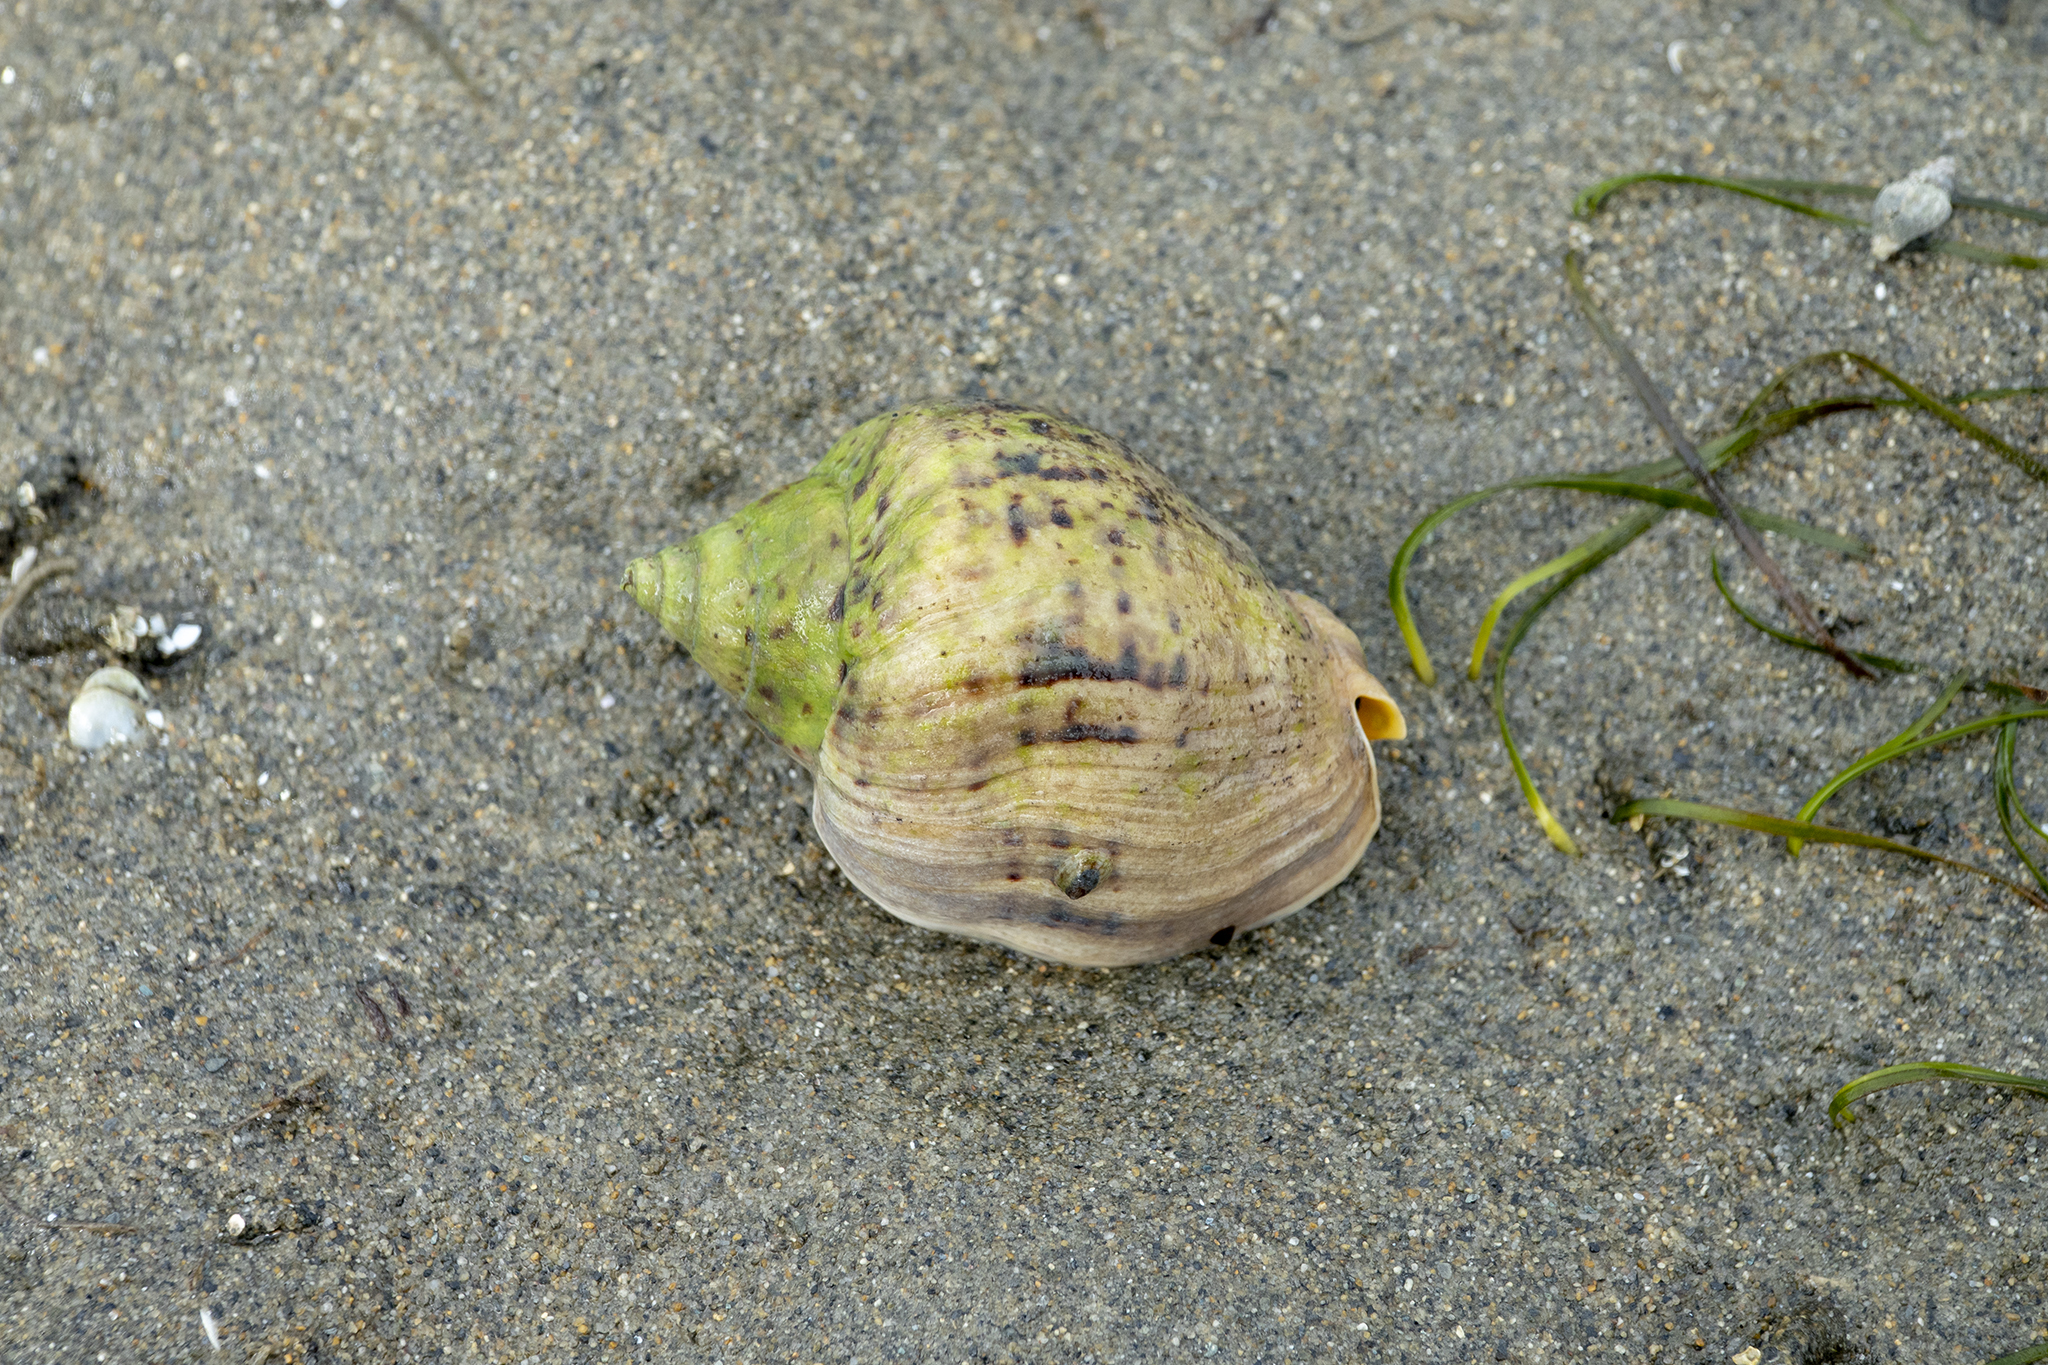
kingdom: Animalia
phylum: Mollusca
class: Gastropoda
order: Neogastropoda
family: Cominellidae
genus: Cominella
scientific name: Cominella adspersa
